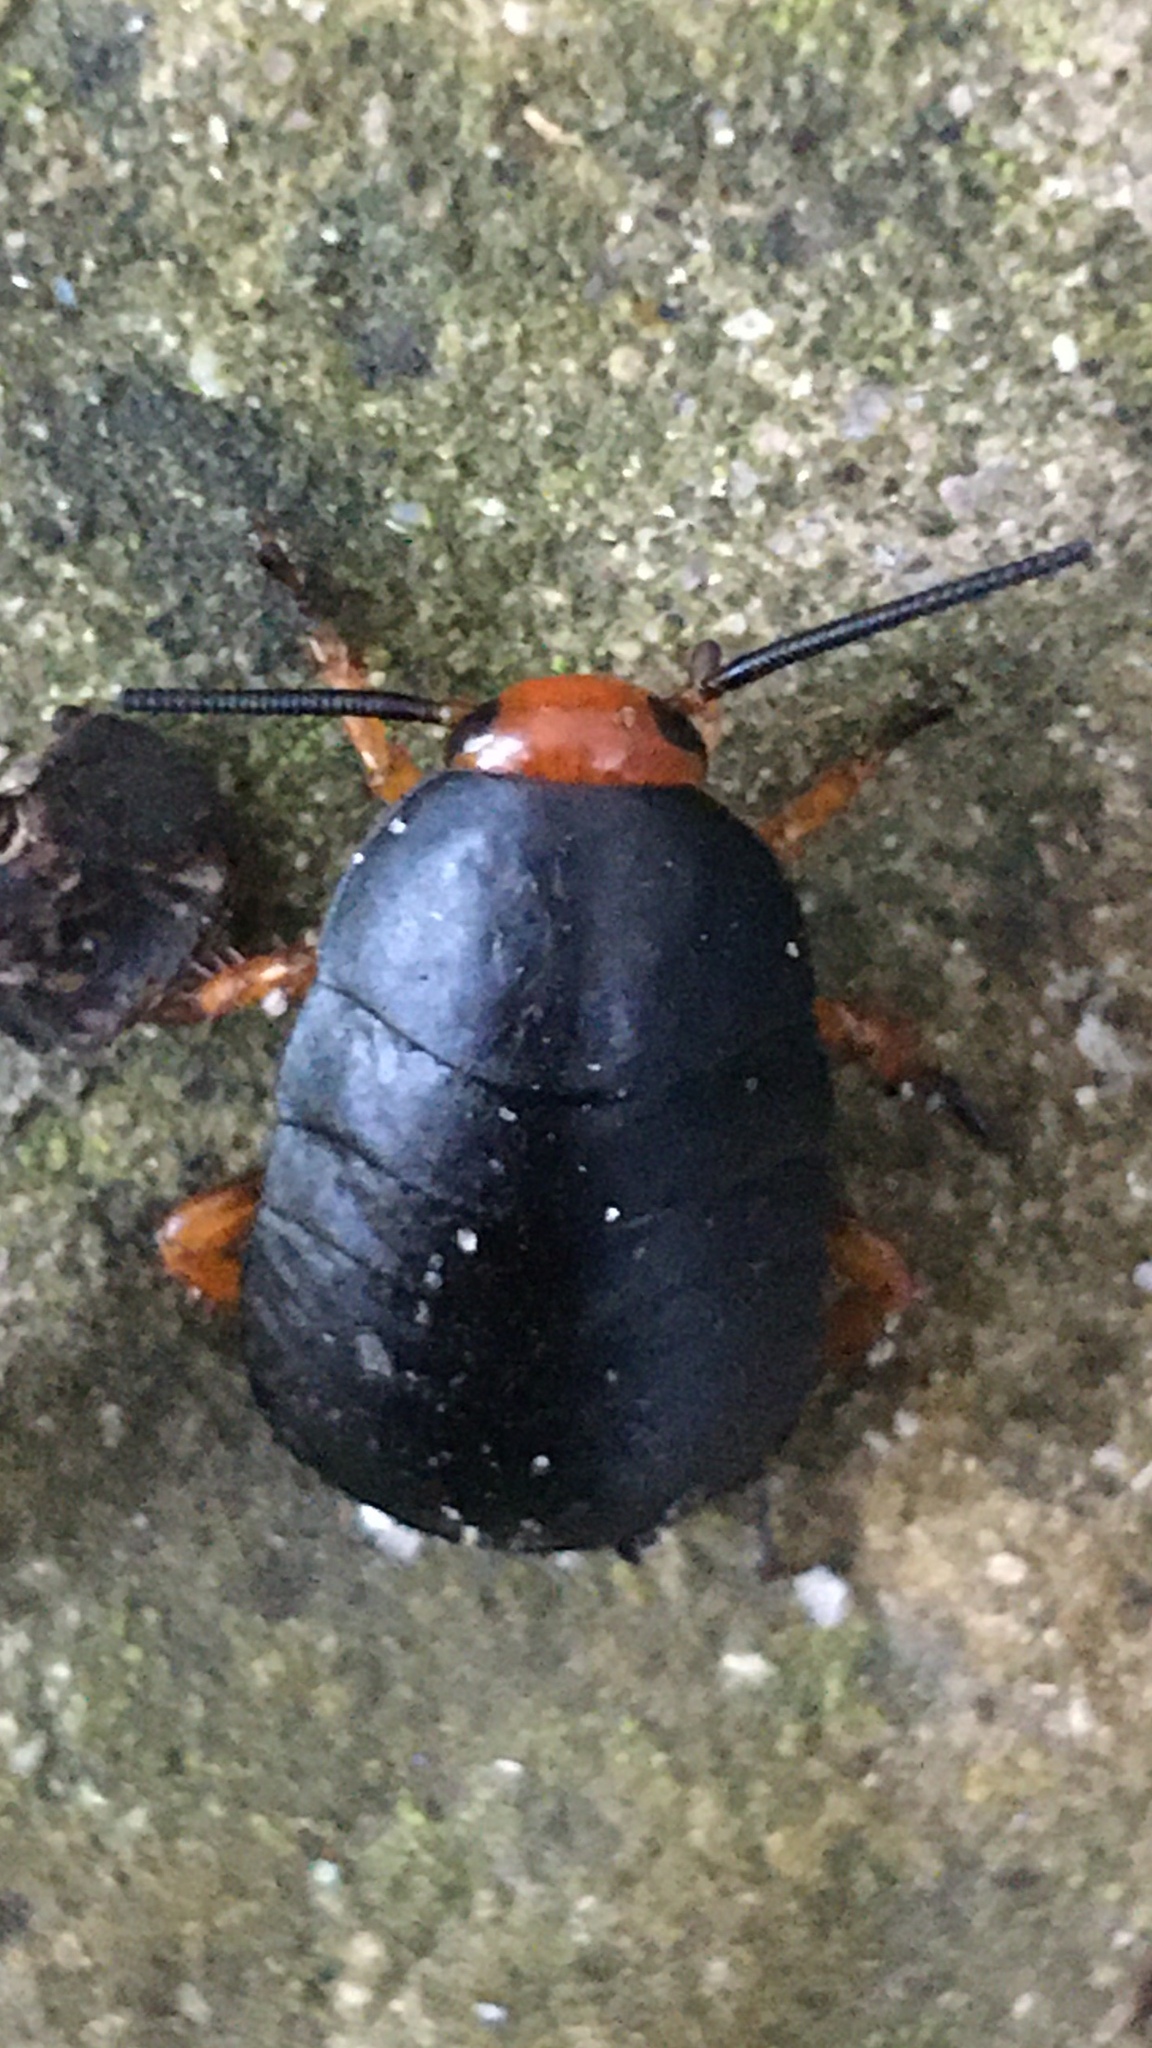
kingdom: Animalia
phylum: Arthropoda
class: Insecta
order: Blattodea
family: Blattidae
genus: Deropeltis
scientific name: Deropeltis erythrocephala
